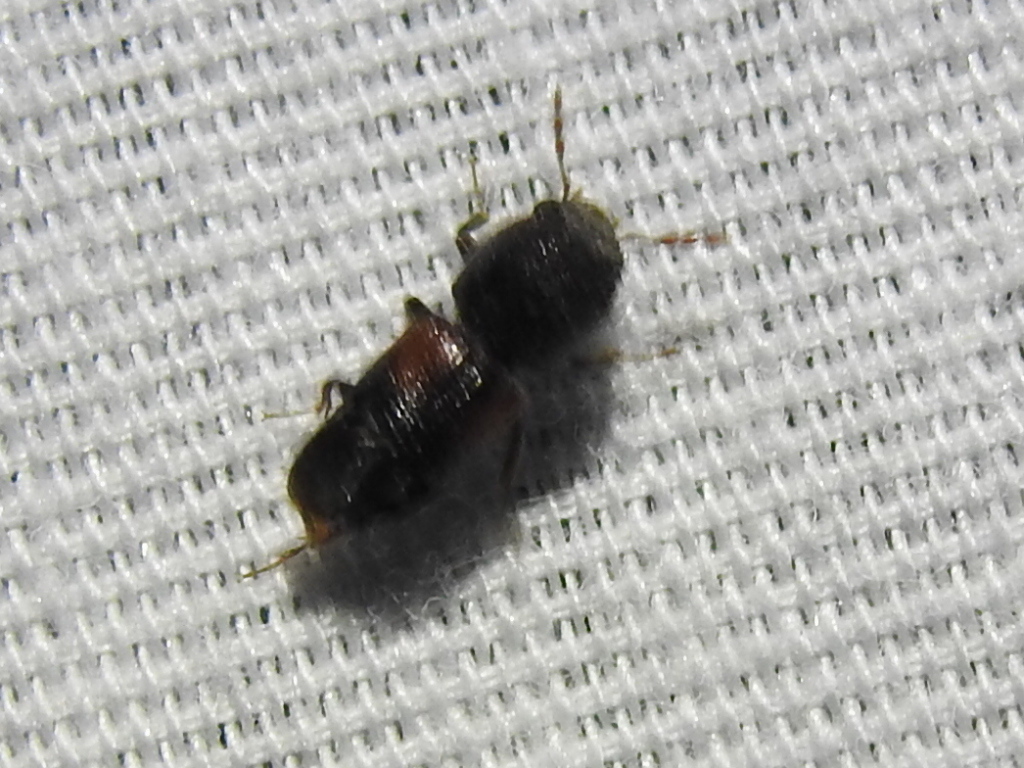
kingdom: Animalia
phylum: Arthropoda
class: Insecta
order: Coleoptera
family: Bostrichidae
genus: Xylobiops
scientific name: Xylobiops basilaris
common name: Red-shouldered bostrichid
